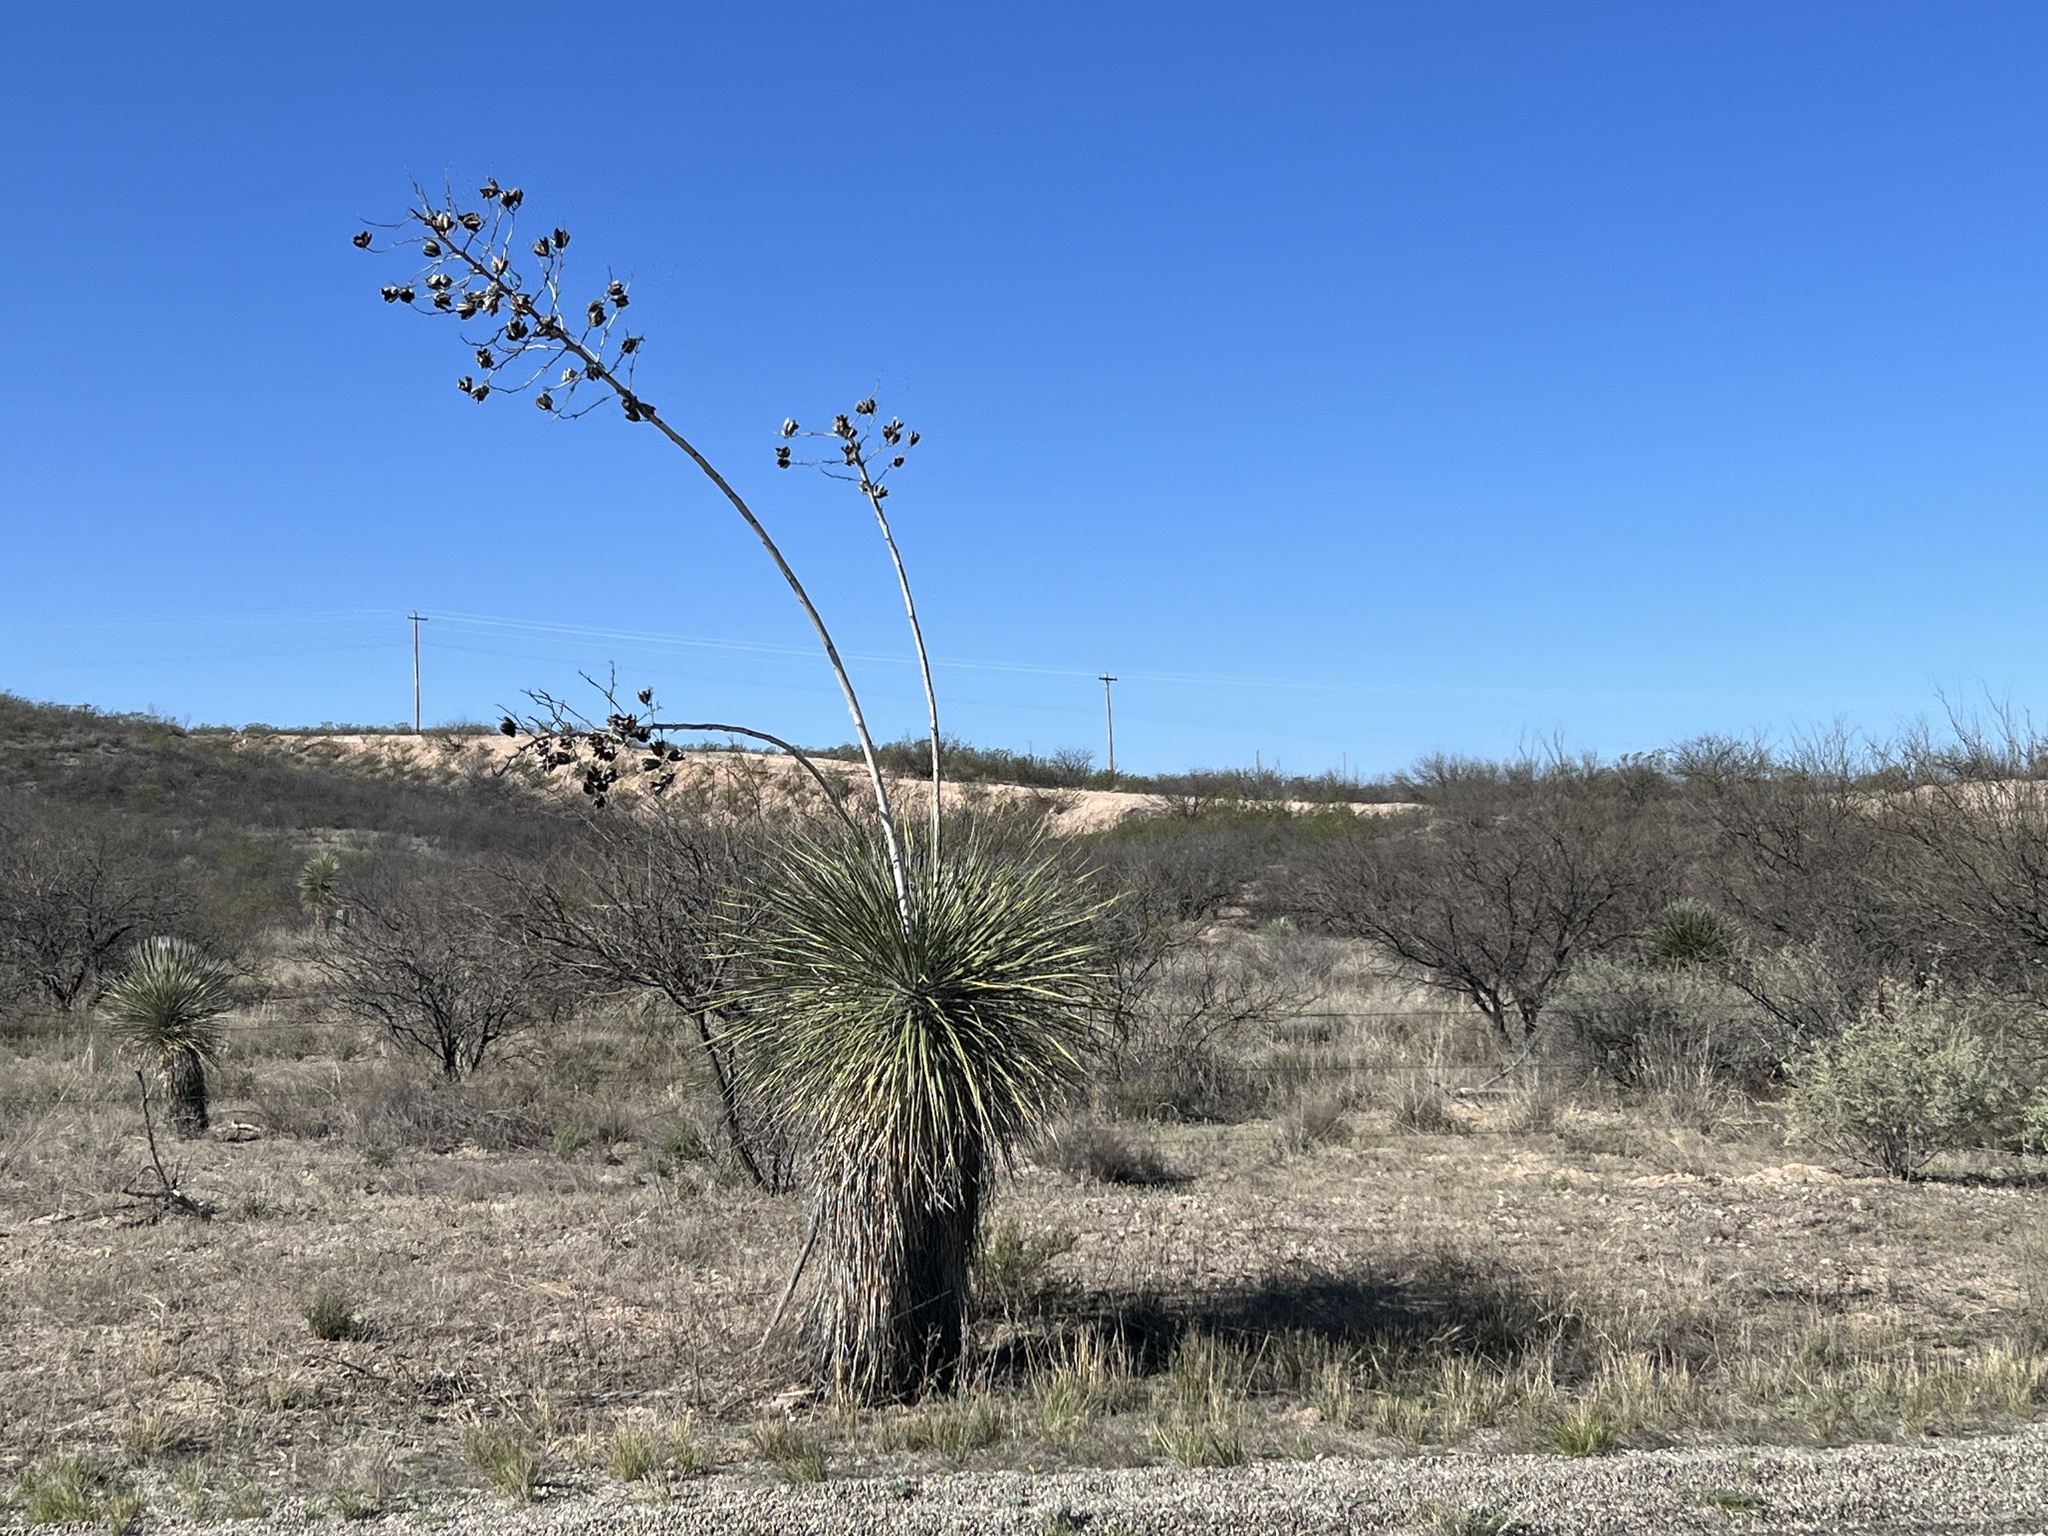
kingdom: Plantae
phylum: Tracheophyta
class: Liliopsida
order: Asparagales
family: Asparagaceae
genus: Yucca
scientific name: Yucca elata
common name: Palmella
